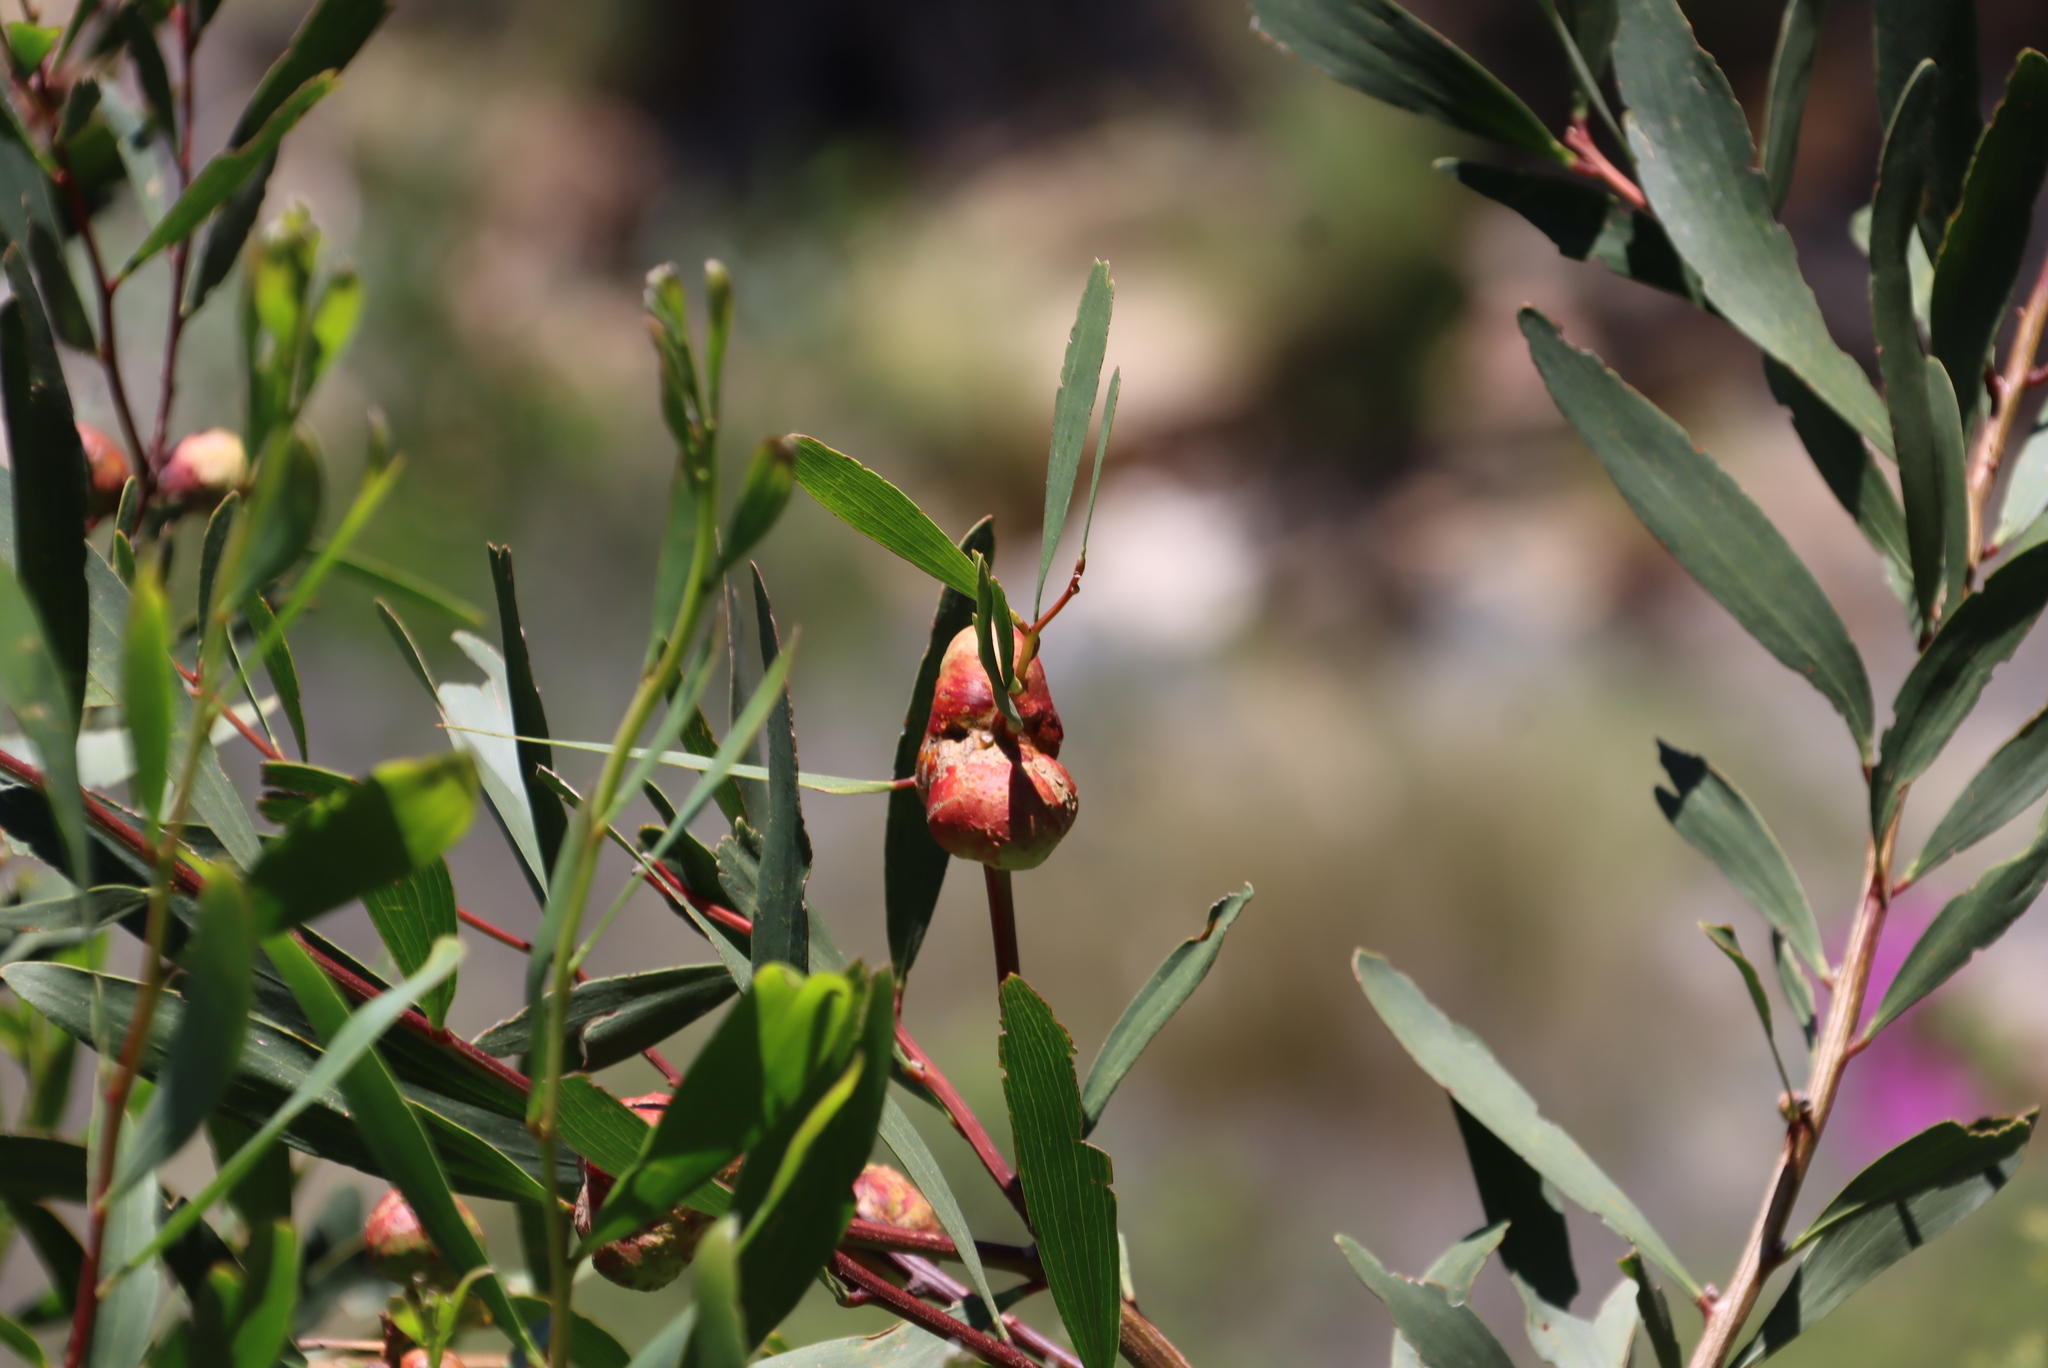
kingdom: Plantae
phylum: Tracheophyta
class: Magnoliopsida
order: Fabales
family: Fabaceae
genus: Acacia
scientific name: Acacia longifolia
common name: Sydney golden wattle
